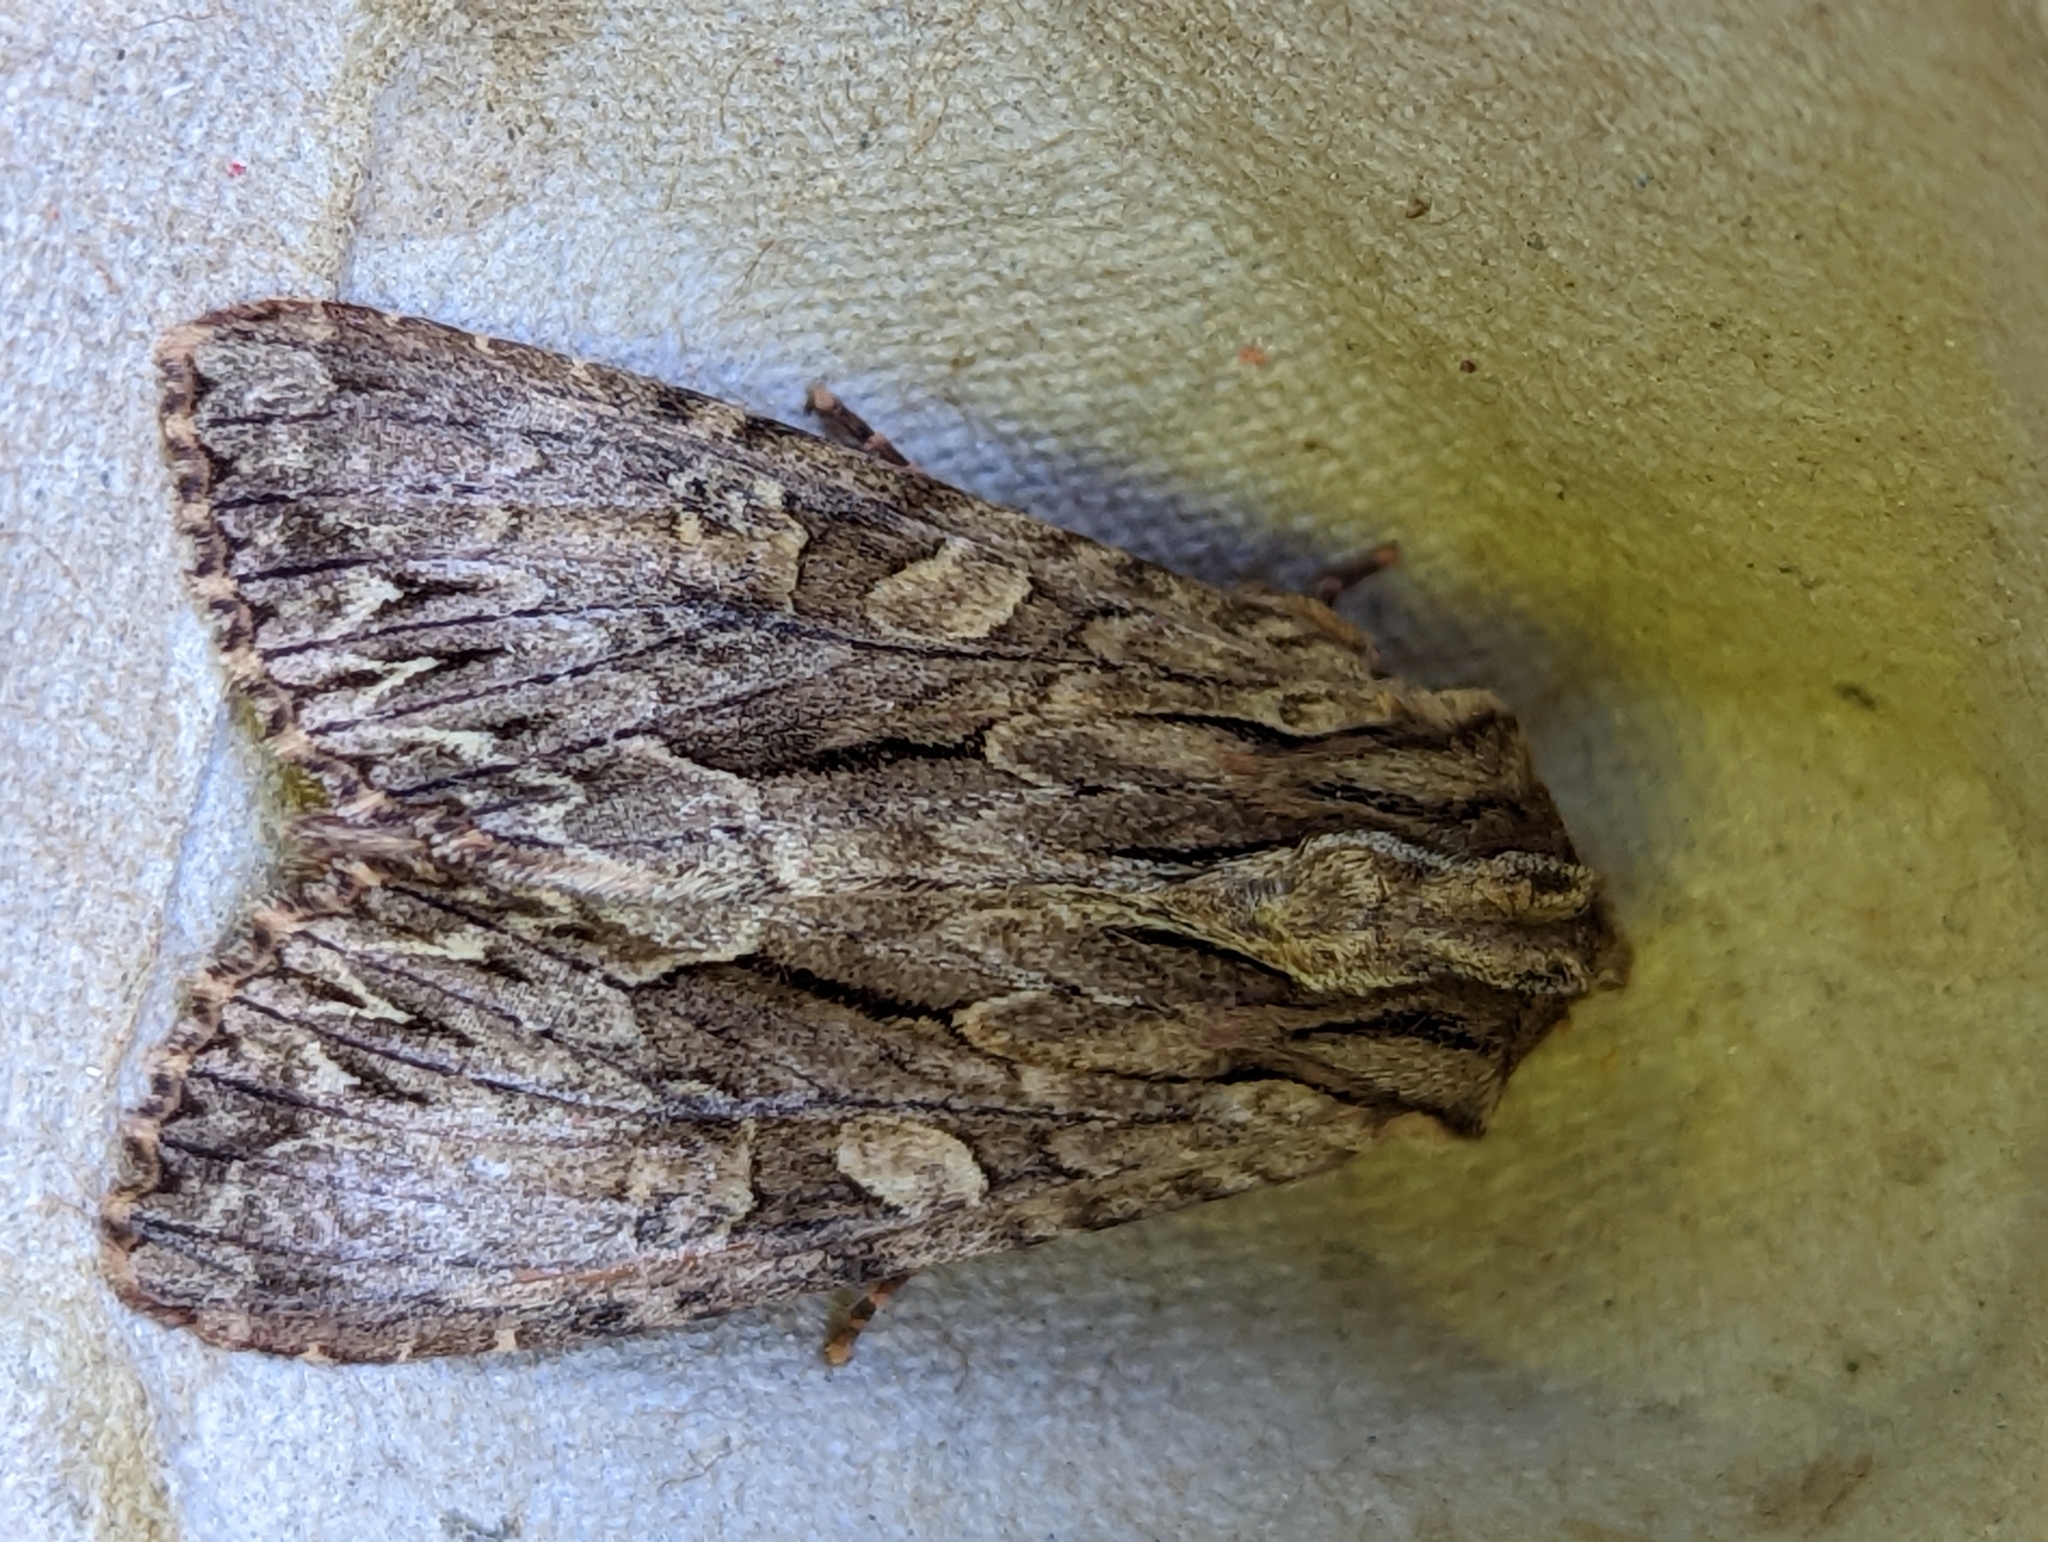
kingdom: Animalia
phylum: Arthropoda
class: Insecta
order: Lepidoptera
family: Noctuidae
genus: Apamea
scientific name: Apamea monoglypha
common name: Dark arches
